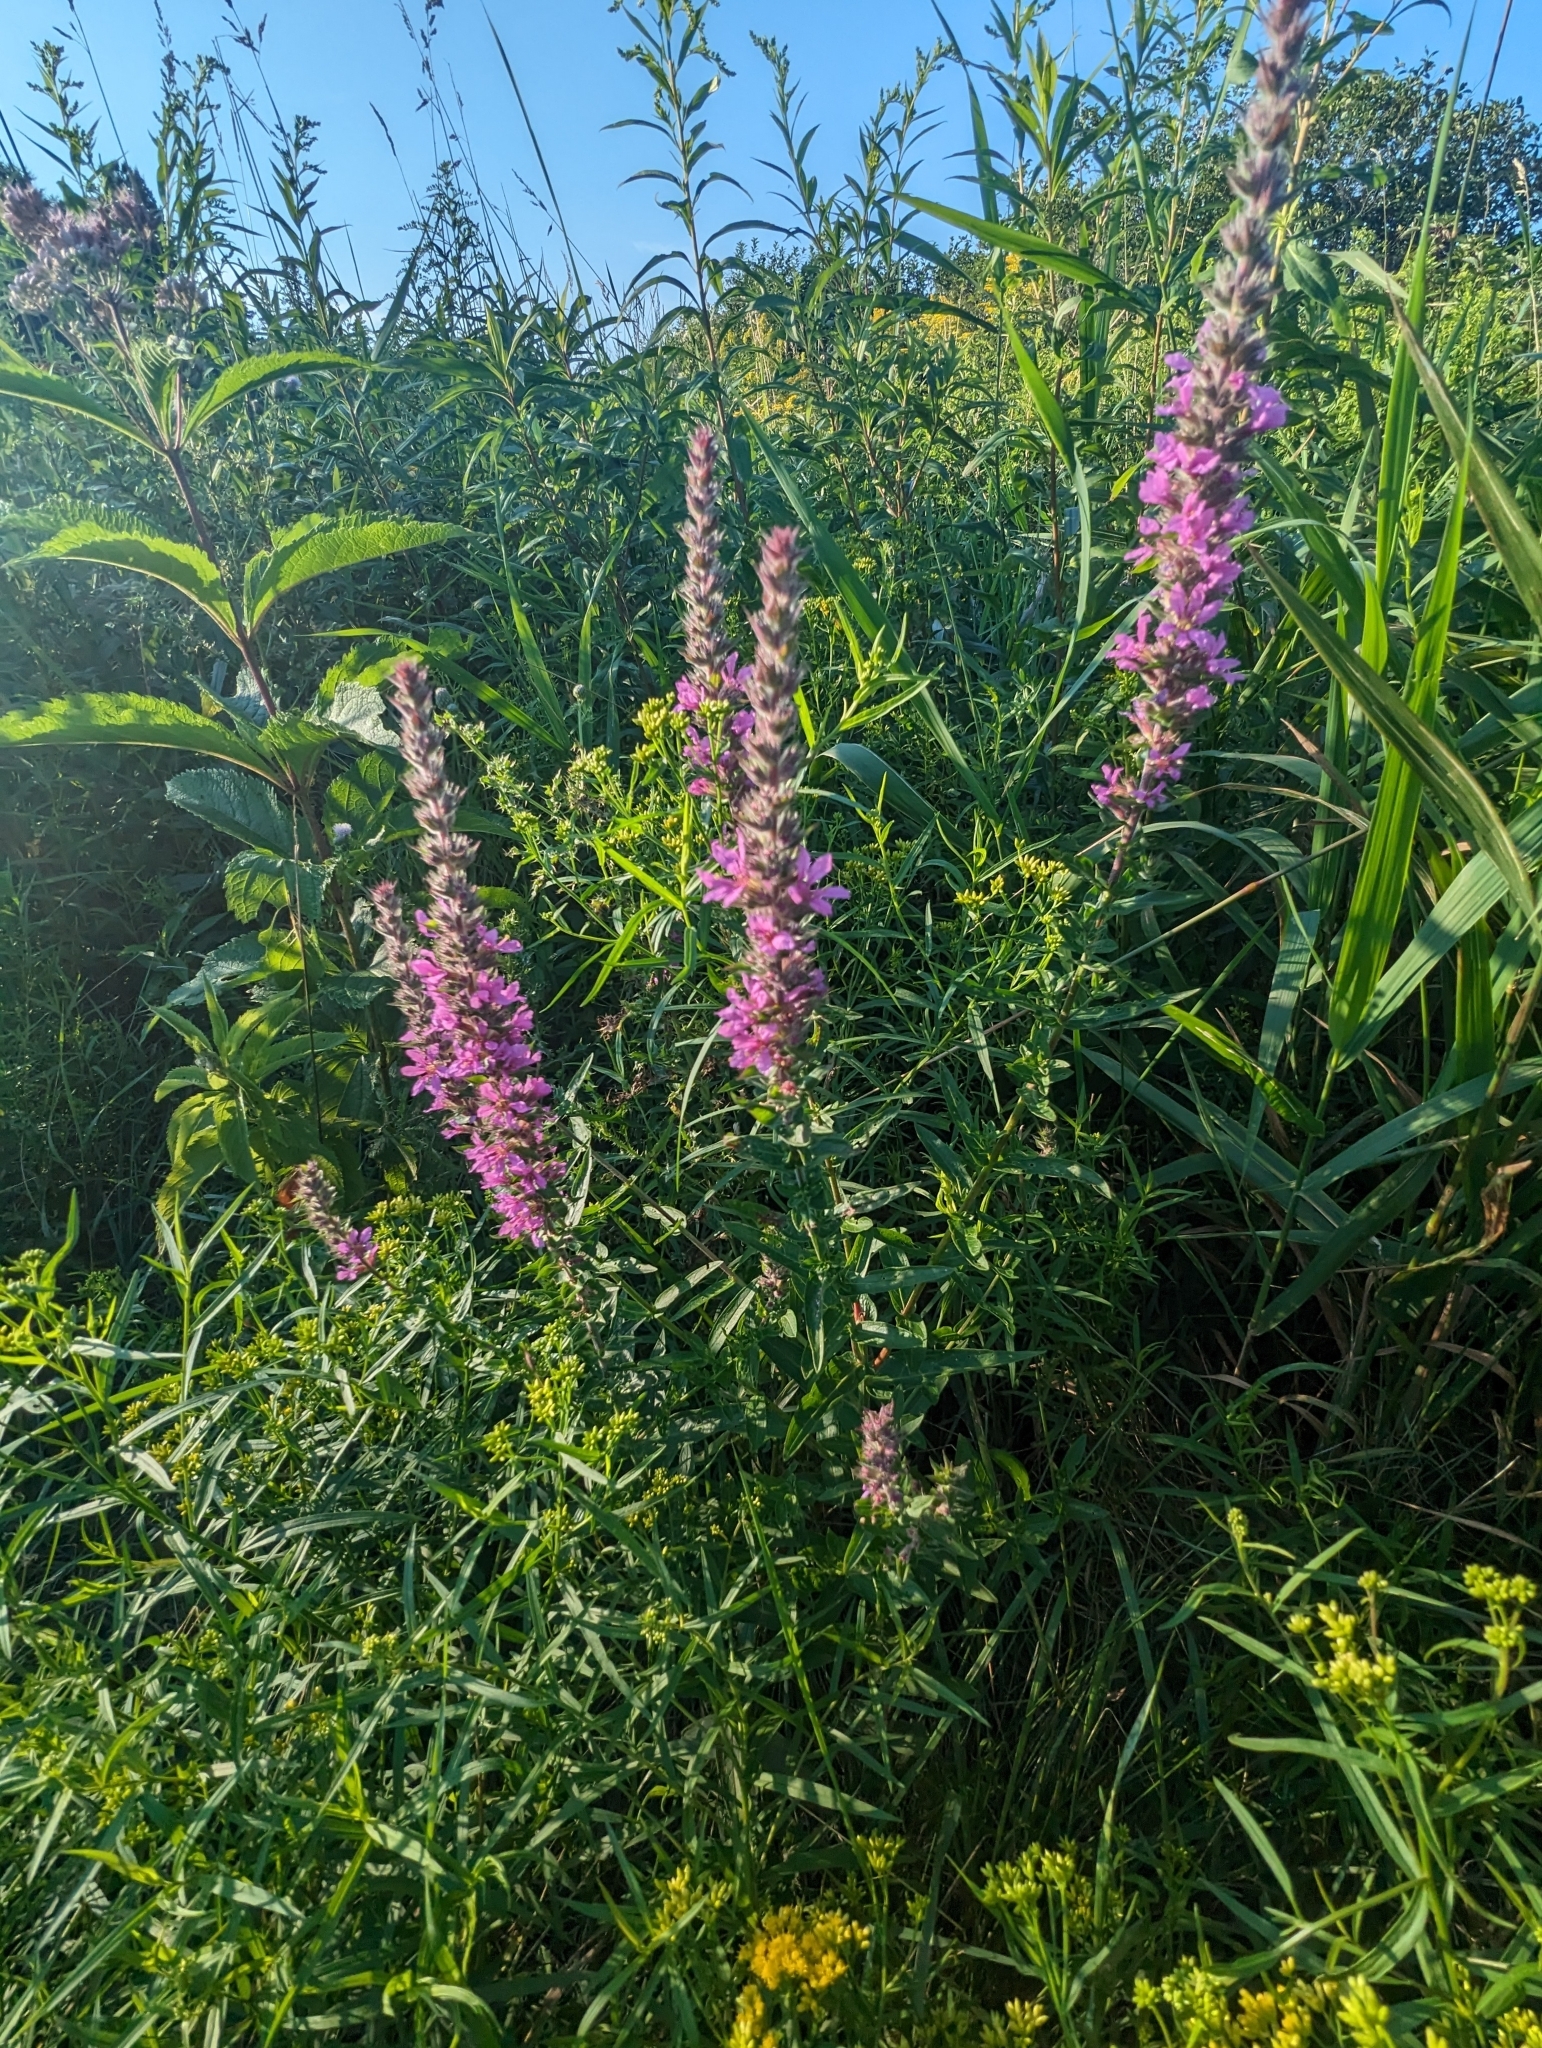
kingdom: Plantae
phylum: Tracheophyta
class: Magnoliopsida
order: Myrtales
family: Lythraceae
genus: Lythrum
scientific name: Lythrum salicaria
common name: Purple loosestrife
